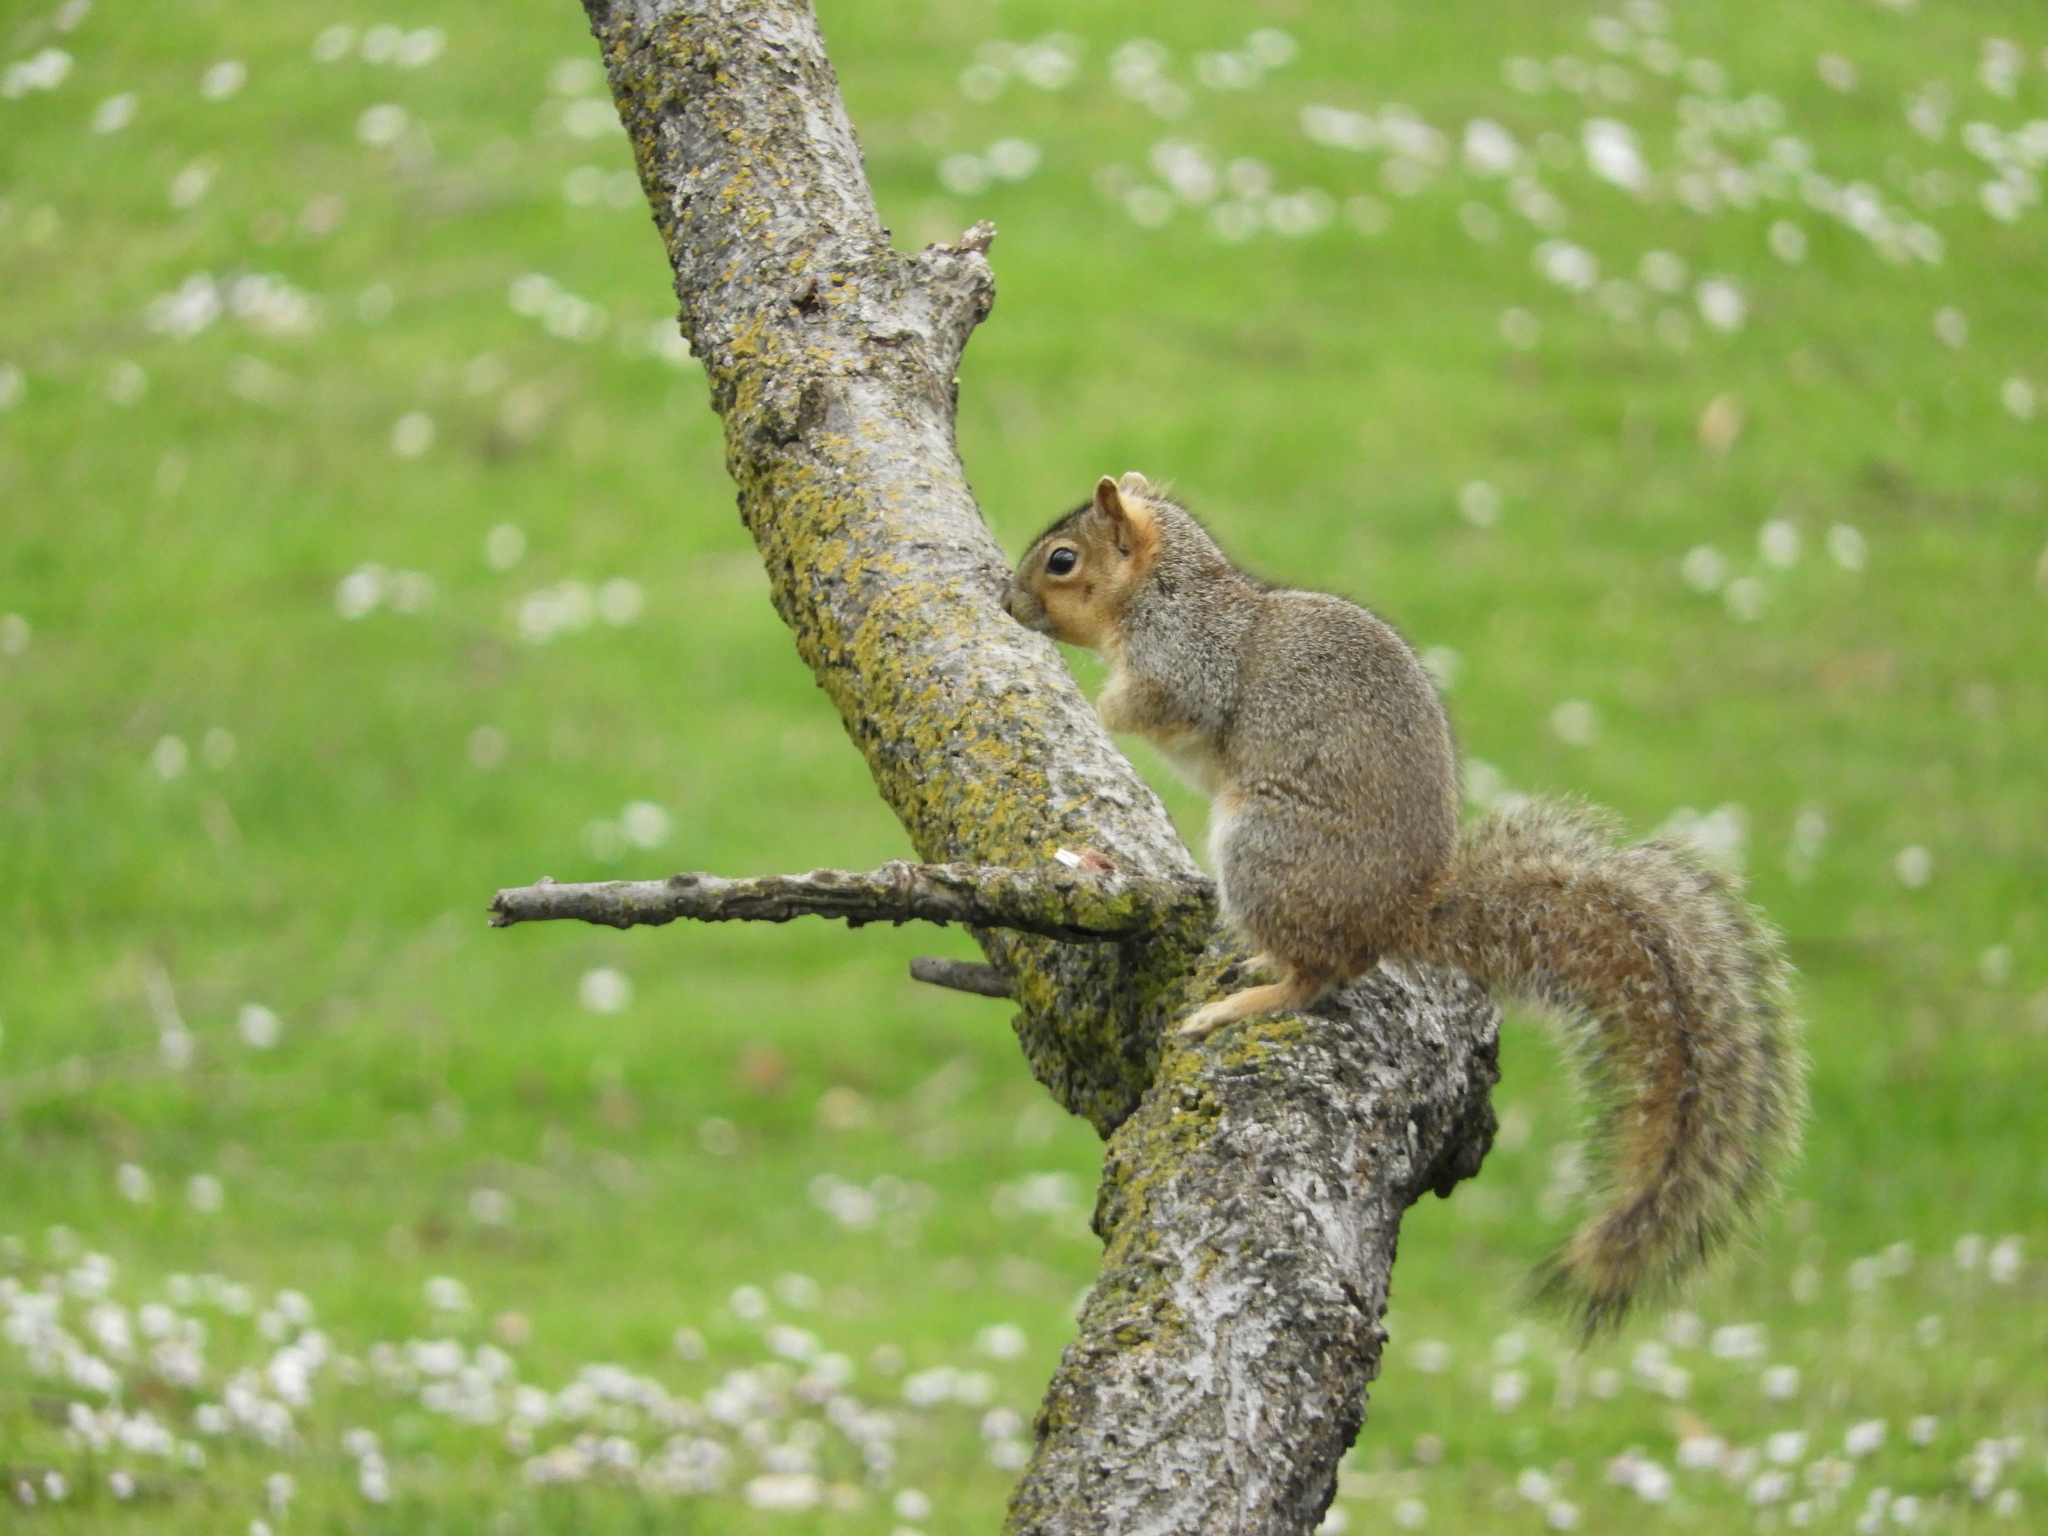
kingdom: Animalia
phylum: Chordata
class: Mammalia
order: Rodentia
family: Sciuridae
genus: Sciurus
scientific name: Sciurus niger
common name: Fox squirrel
